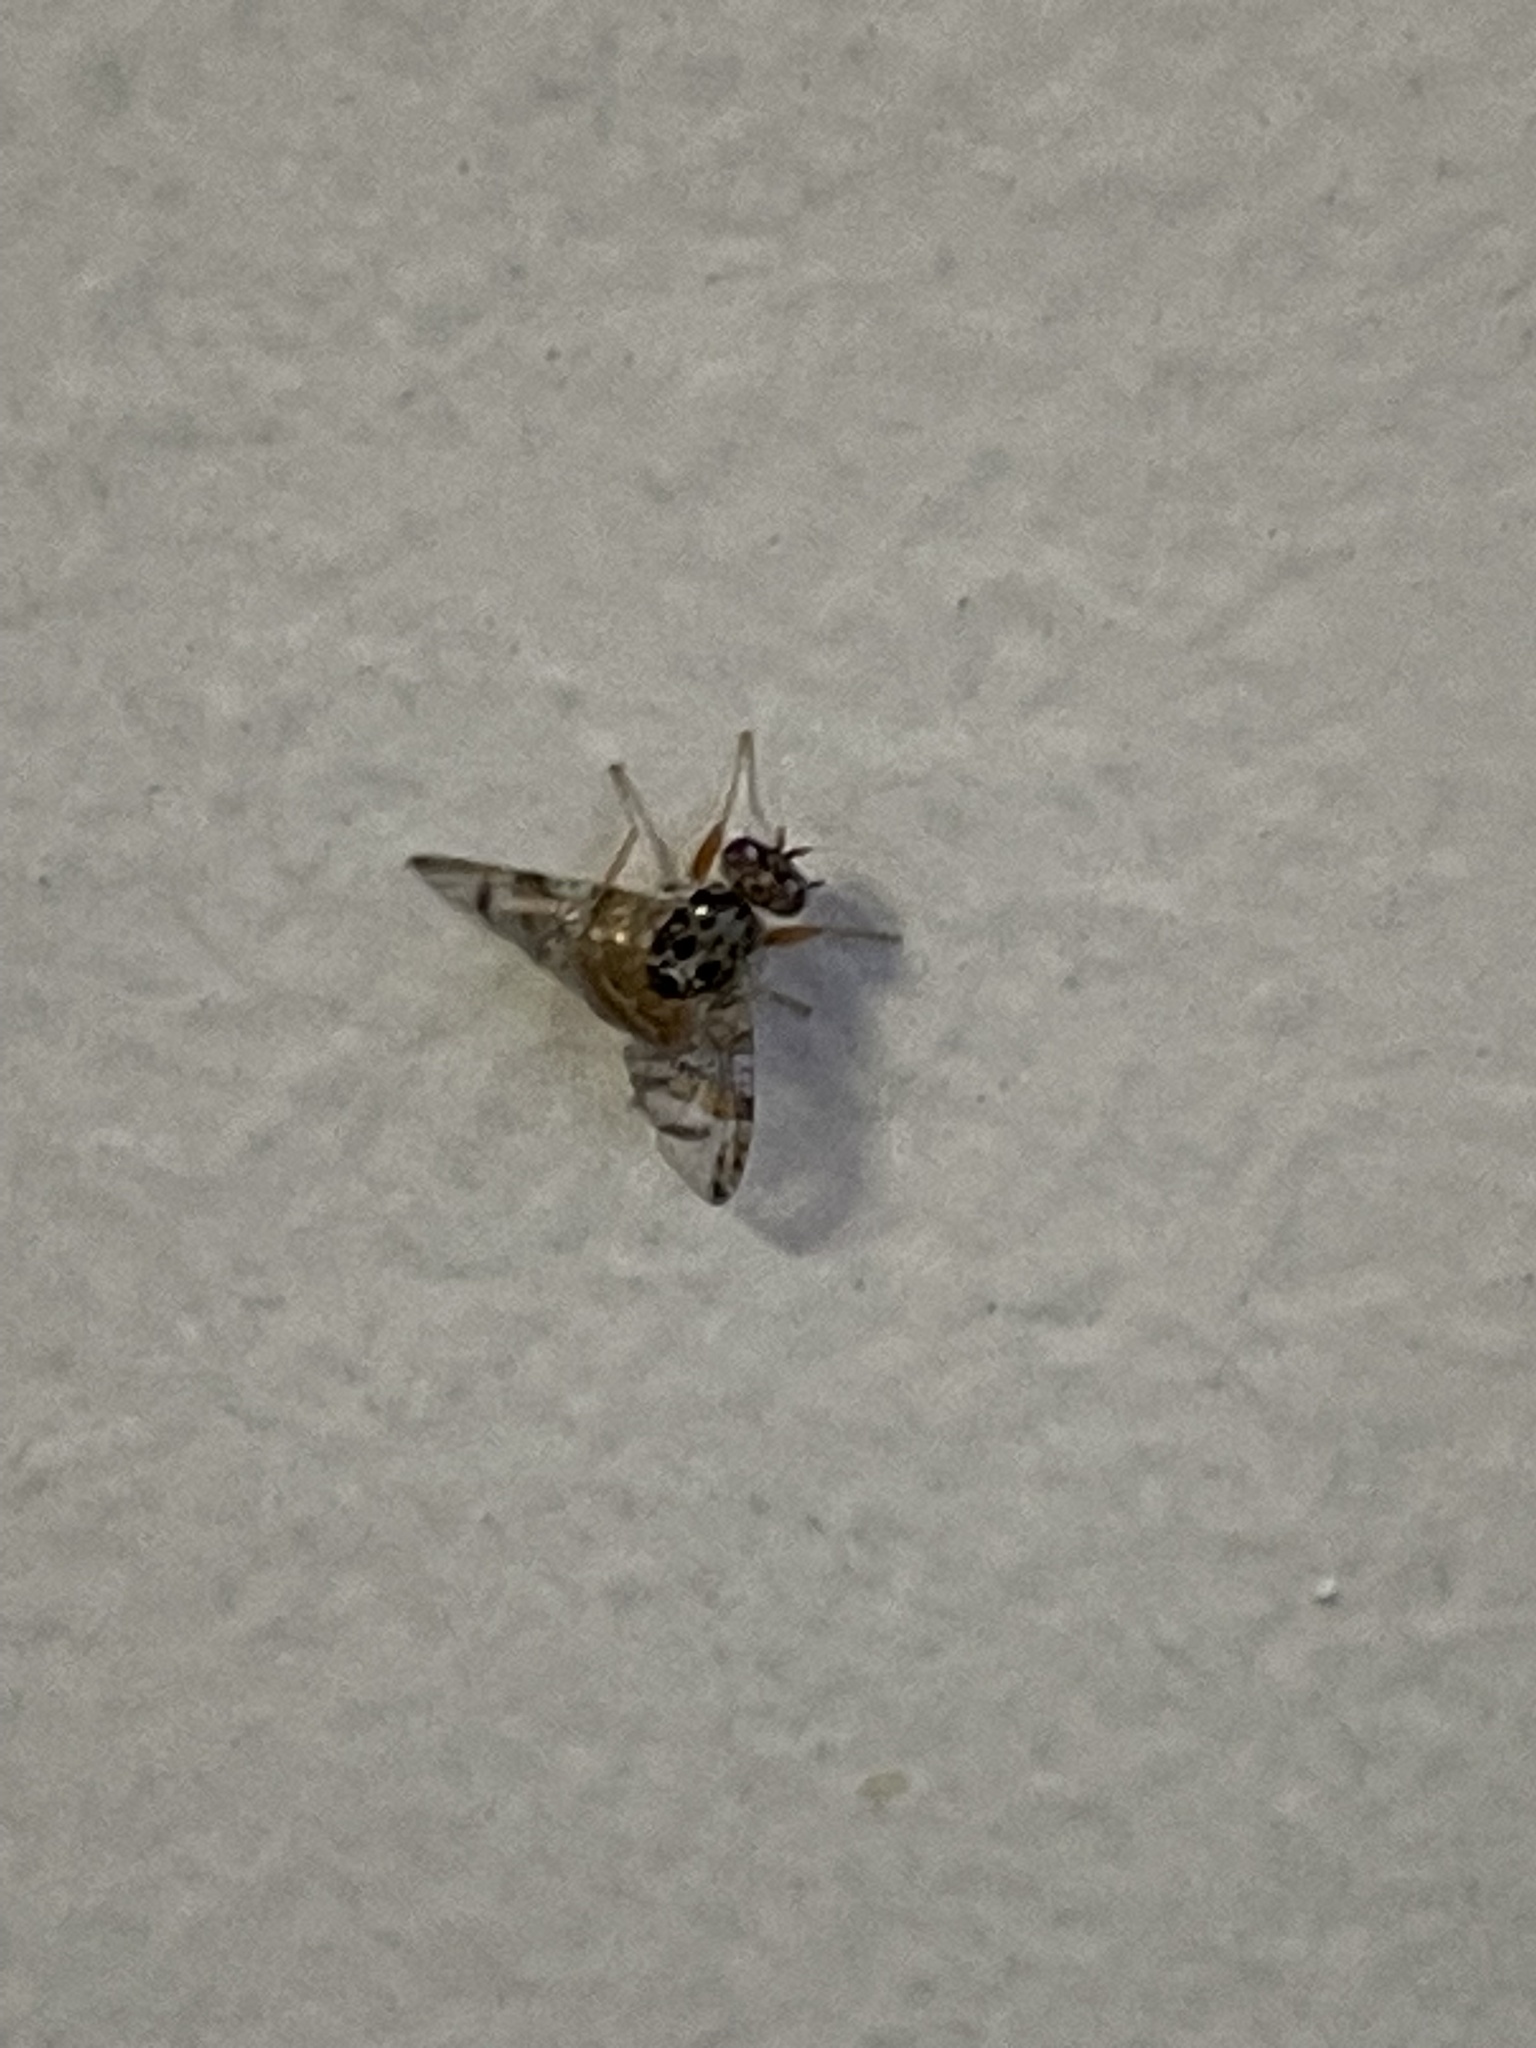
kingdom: Animalia
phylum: Arthropoda
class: Insecta
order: Diptera
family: Tephritidae
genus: Ceratitis
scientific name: Ceratitis capitata
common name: Mediterranean fruit fly
